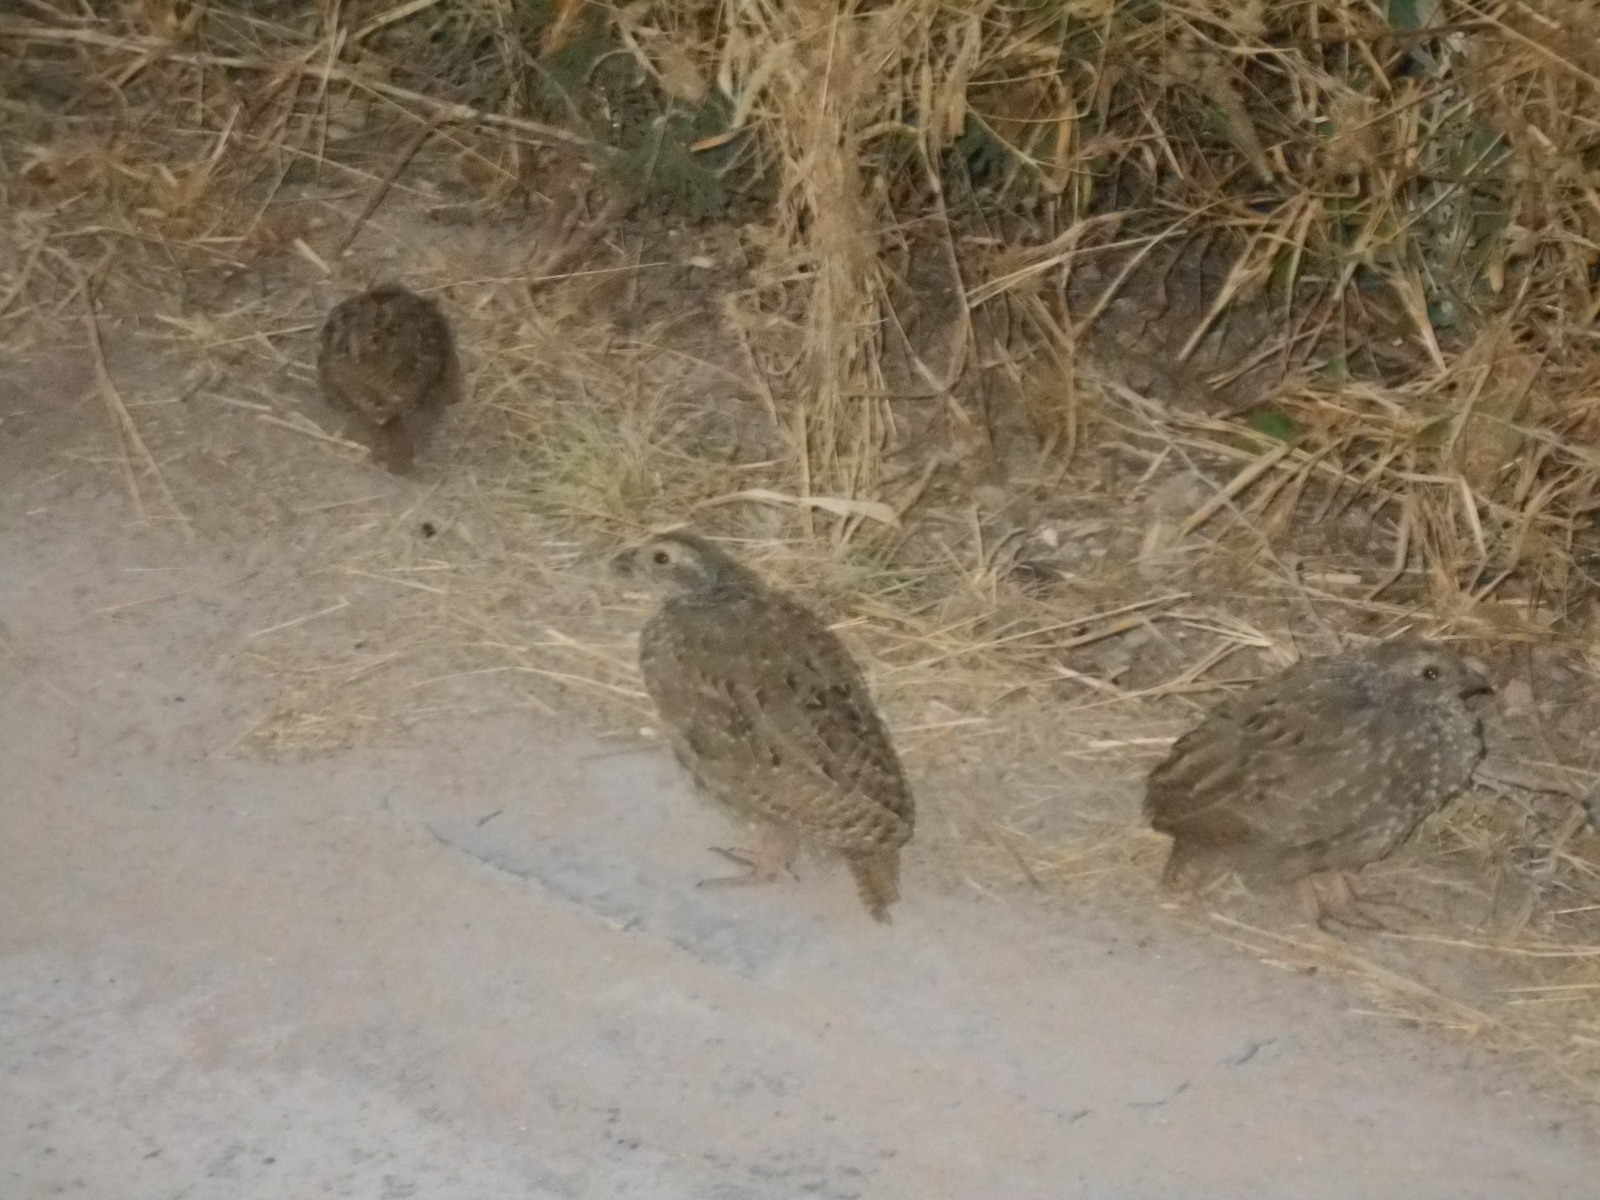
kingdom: Animalia
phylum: Chordata
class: Aves
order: Galliformes
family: Phasianidae
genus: Pternistis
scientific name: Pternistis adspersus
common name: Red-billed spurfowl
